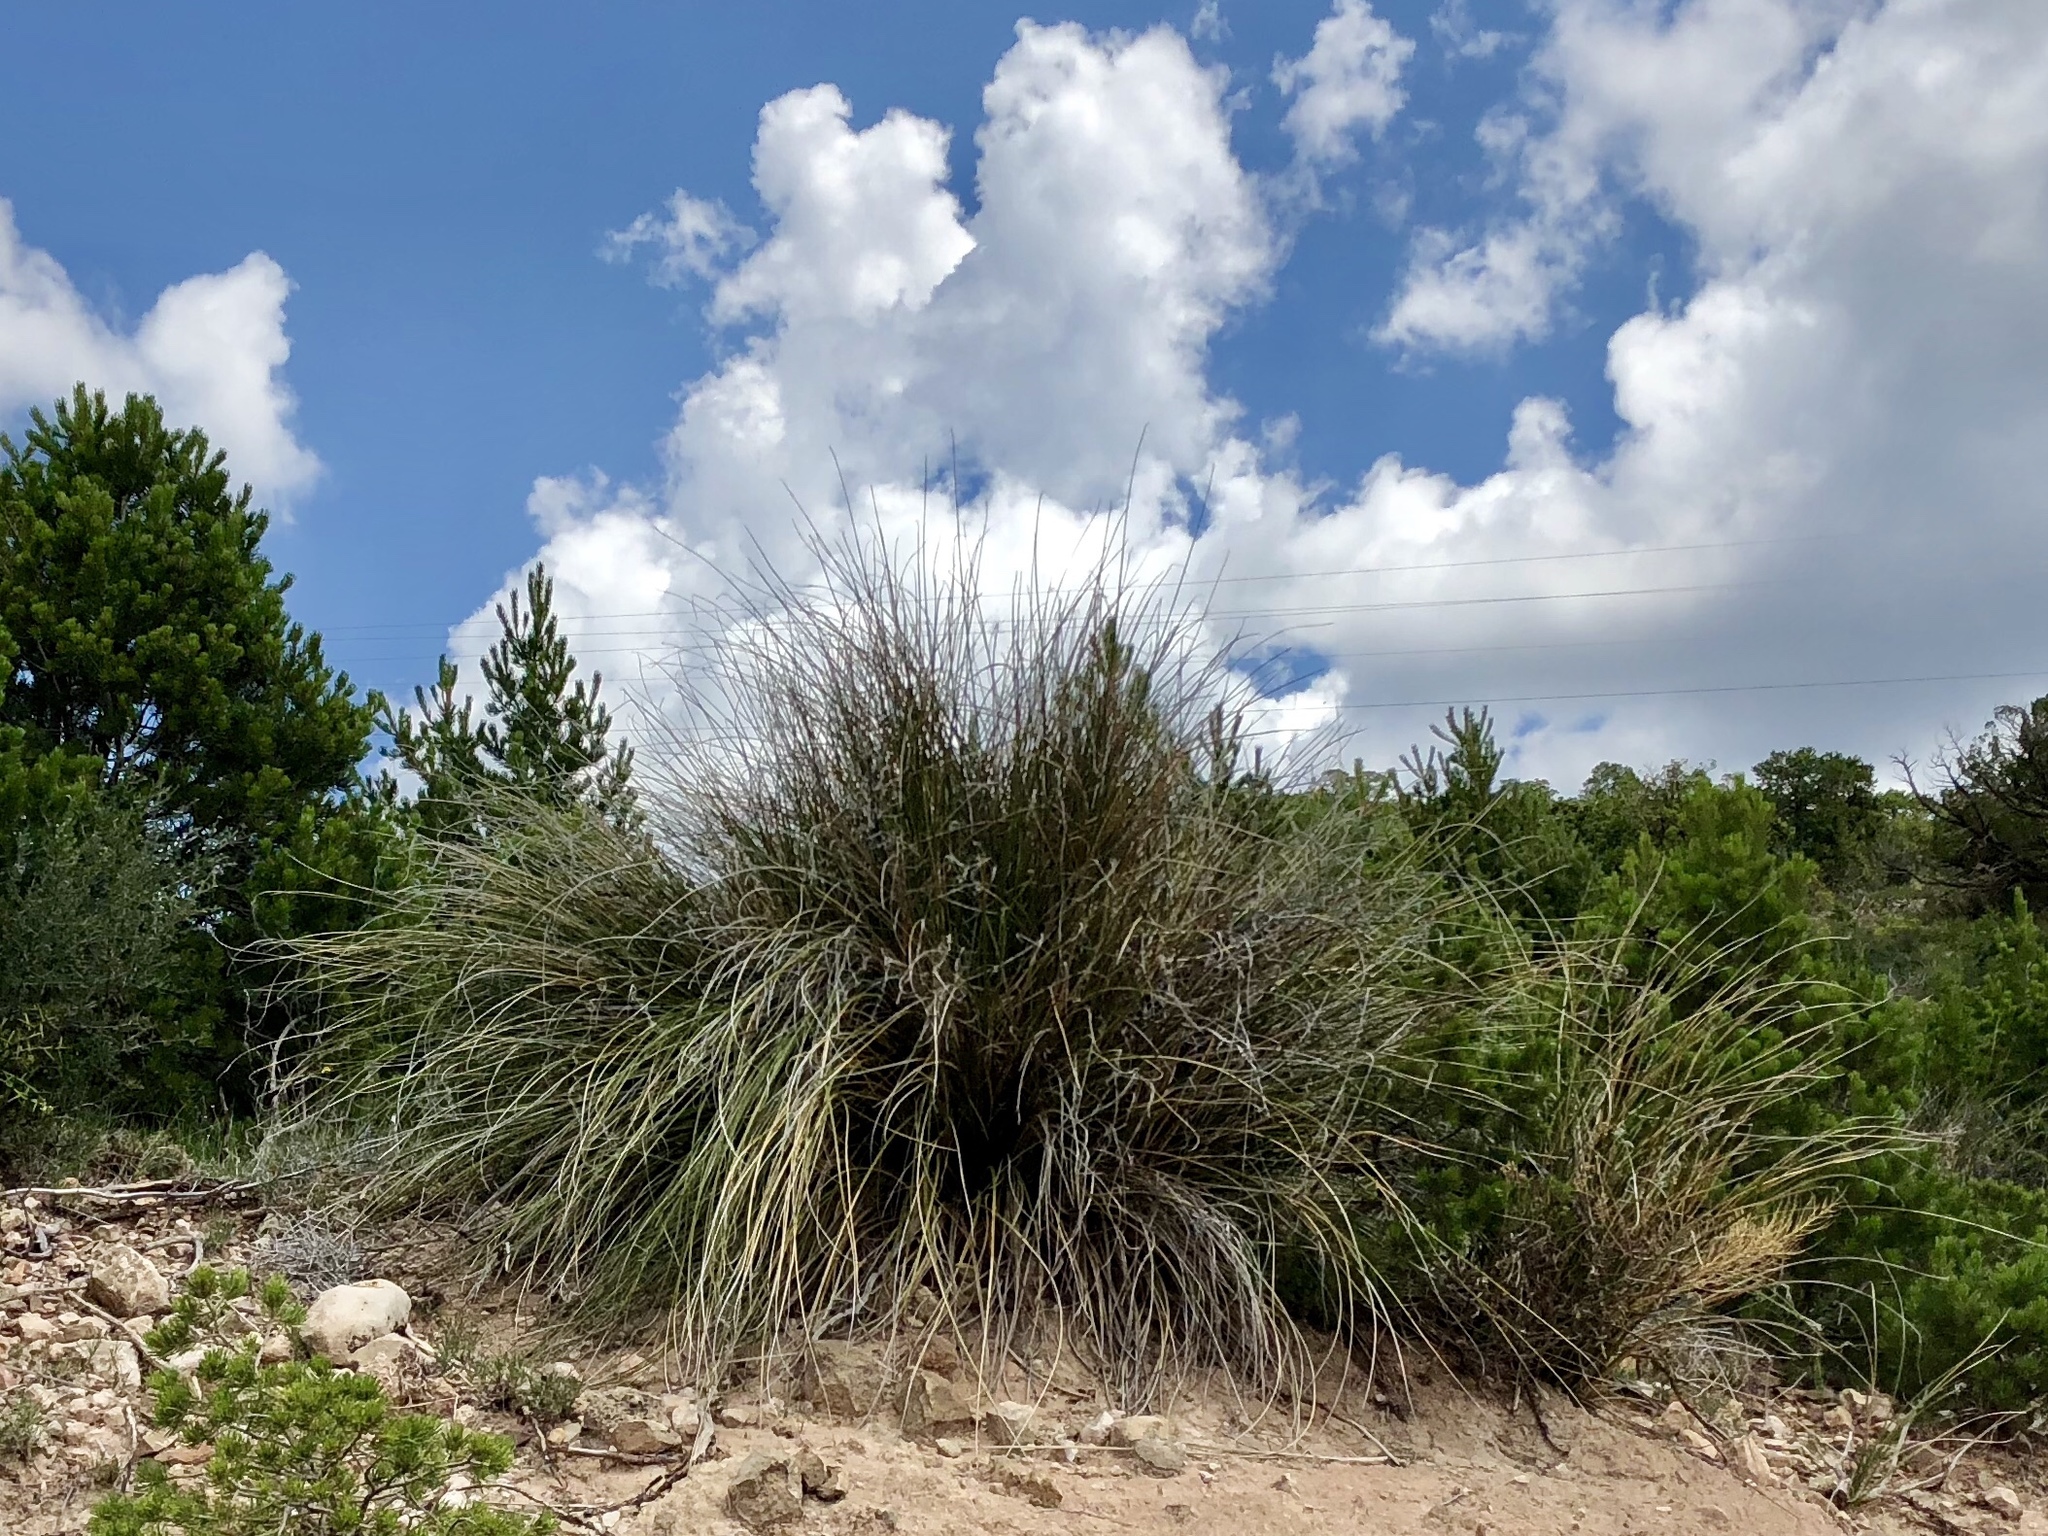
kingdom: Plantae
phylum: Tracheophyta
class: Liliopsida
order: Asparagales
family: Asparagaceae
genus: Nolina
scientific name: Nolina microcarpa
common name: Bear-grass
